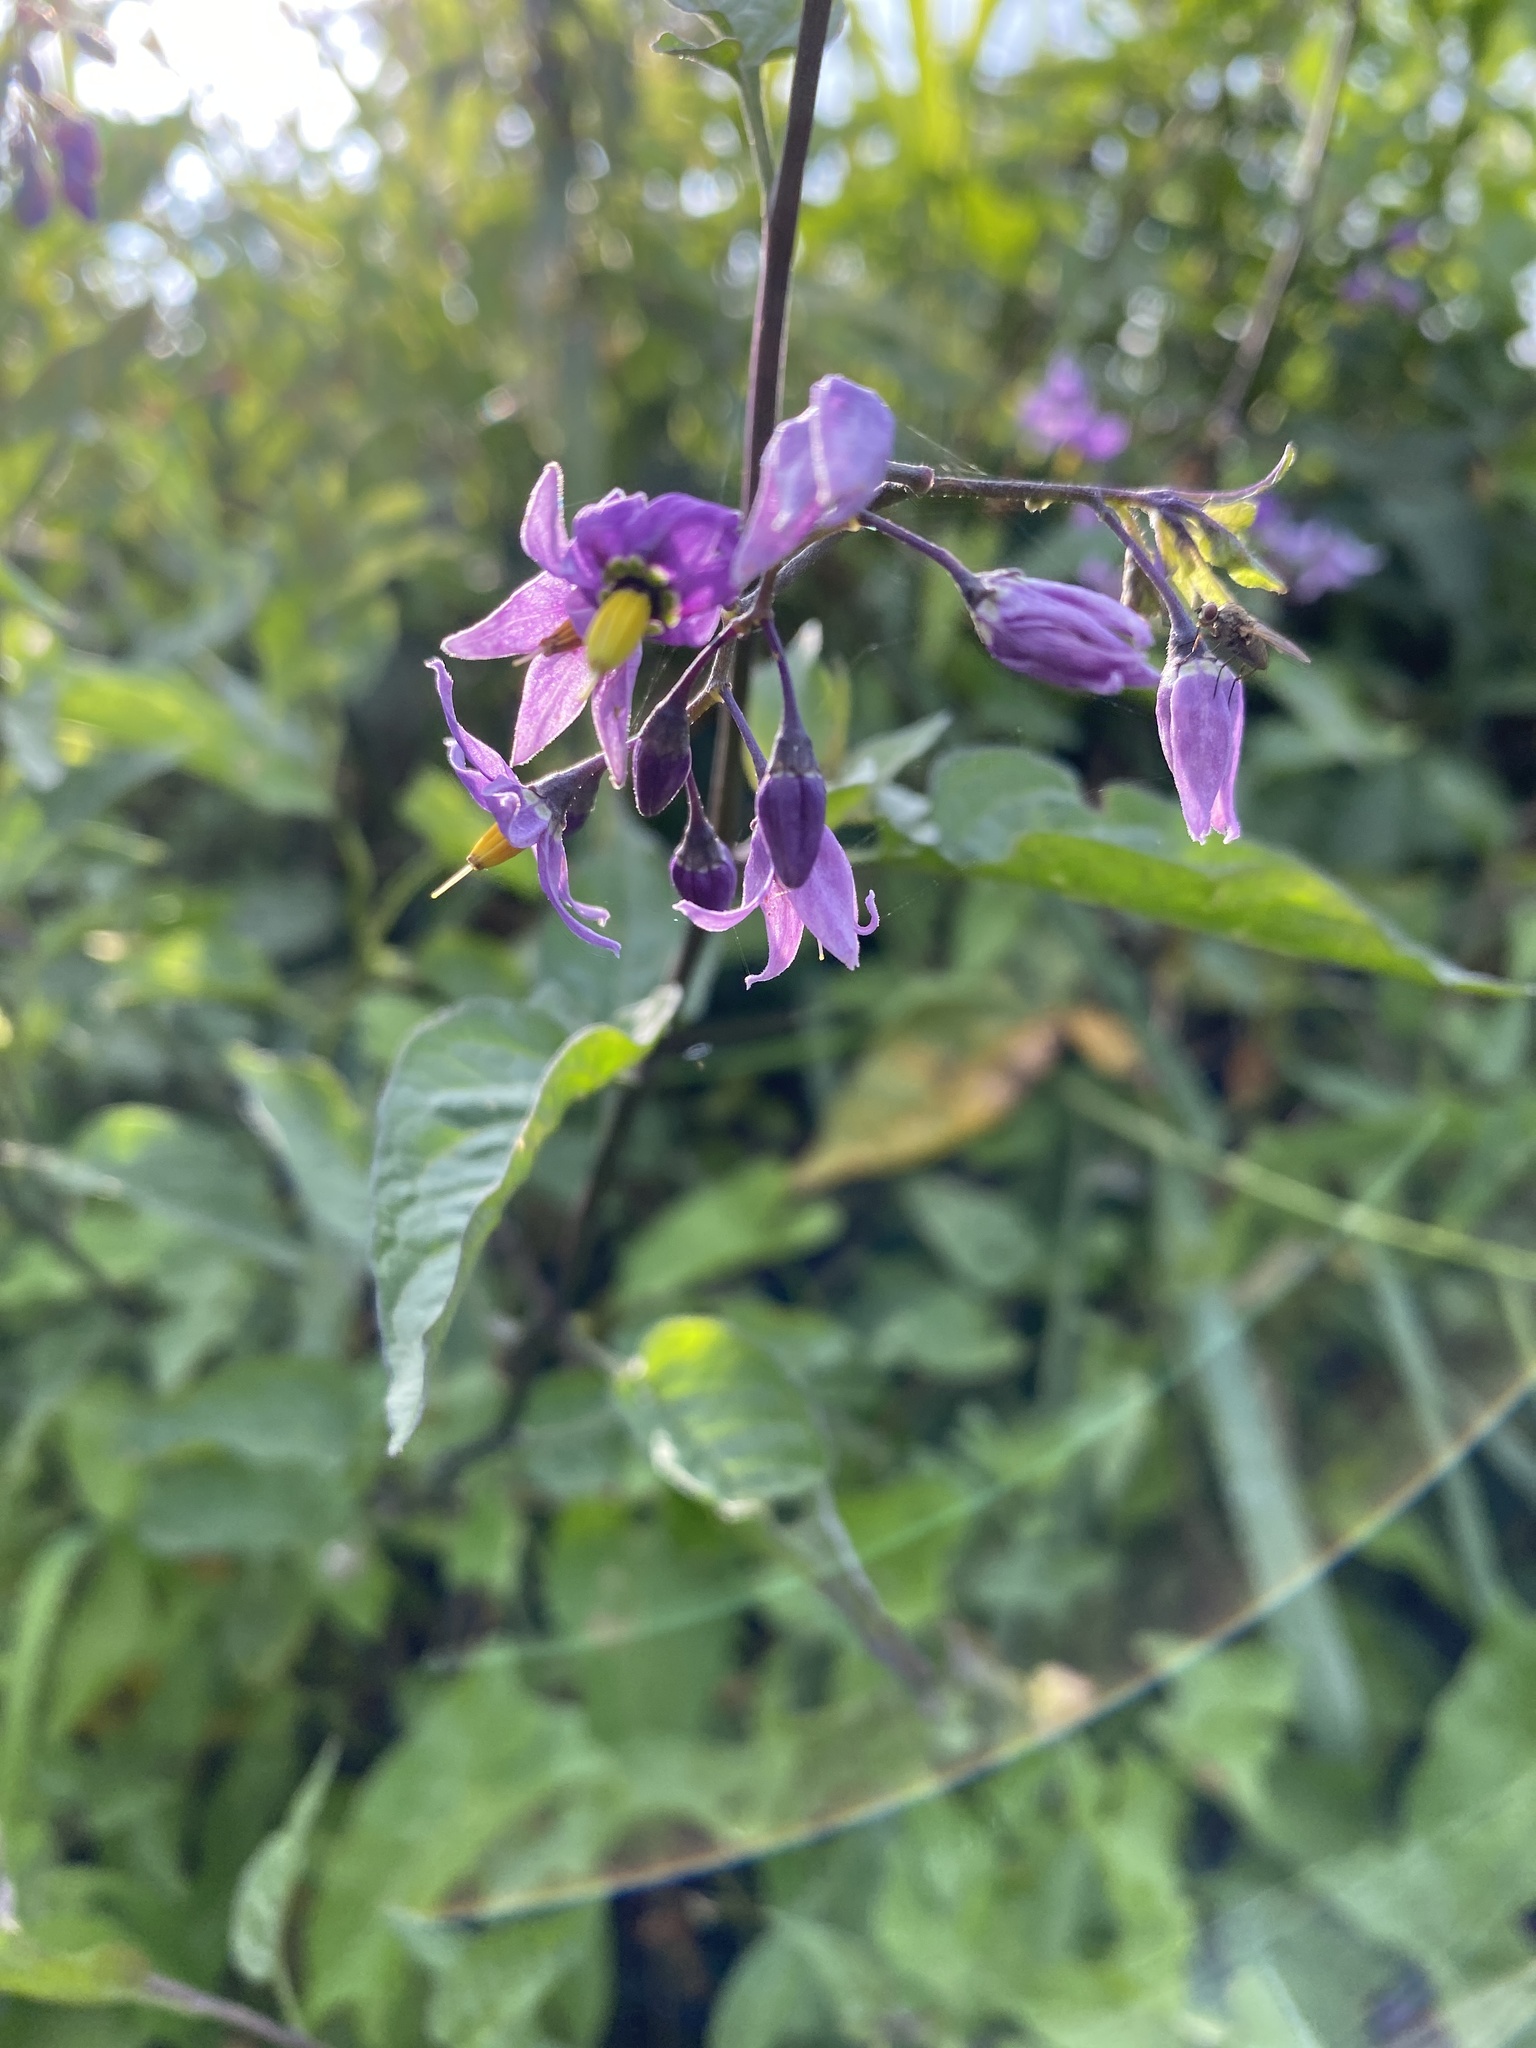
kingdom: Plantae
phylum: Tracheophyta
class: Magnoliopsida
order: Solanales
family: Solanaceae
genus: Solanum
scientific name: Solanum dulcamara
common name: Climbing nightshade
